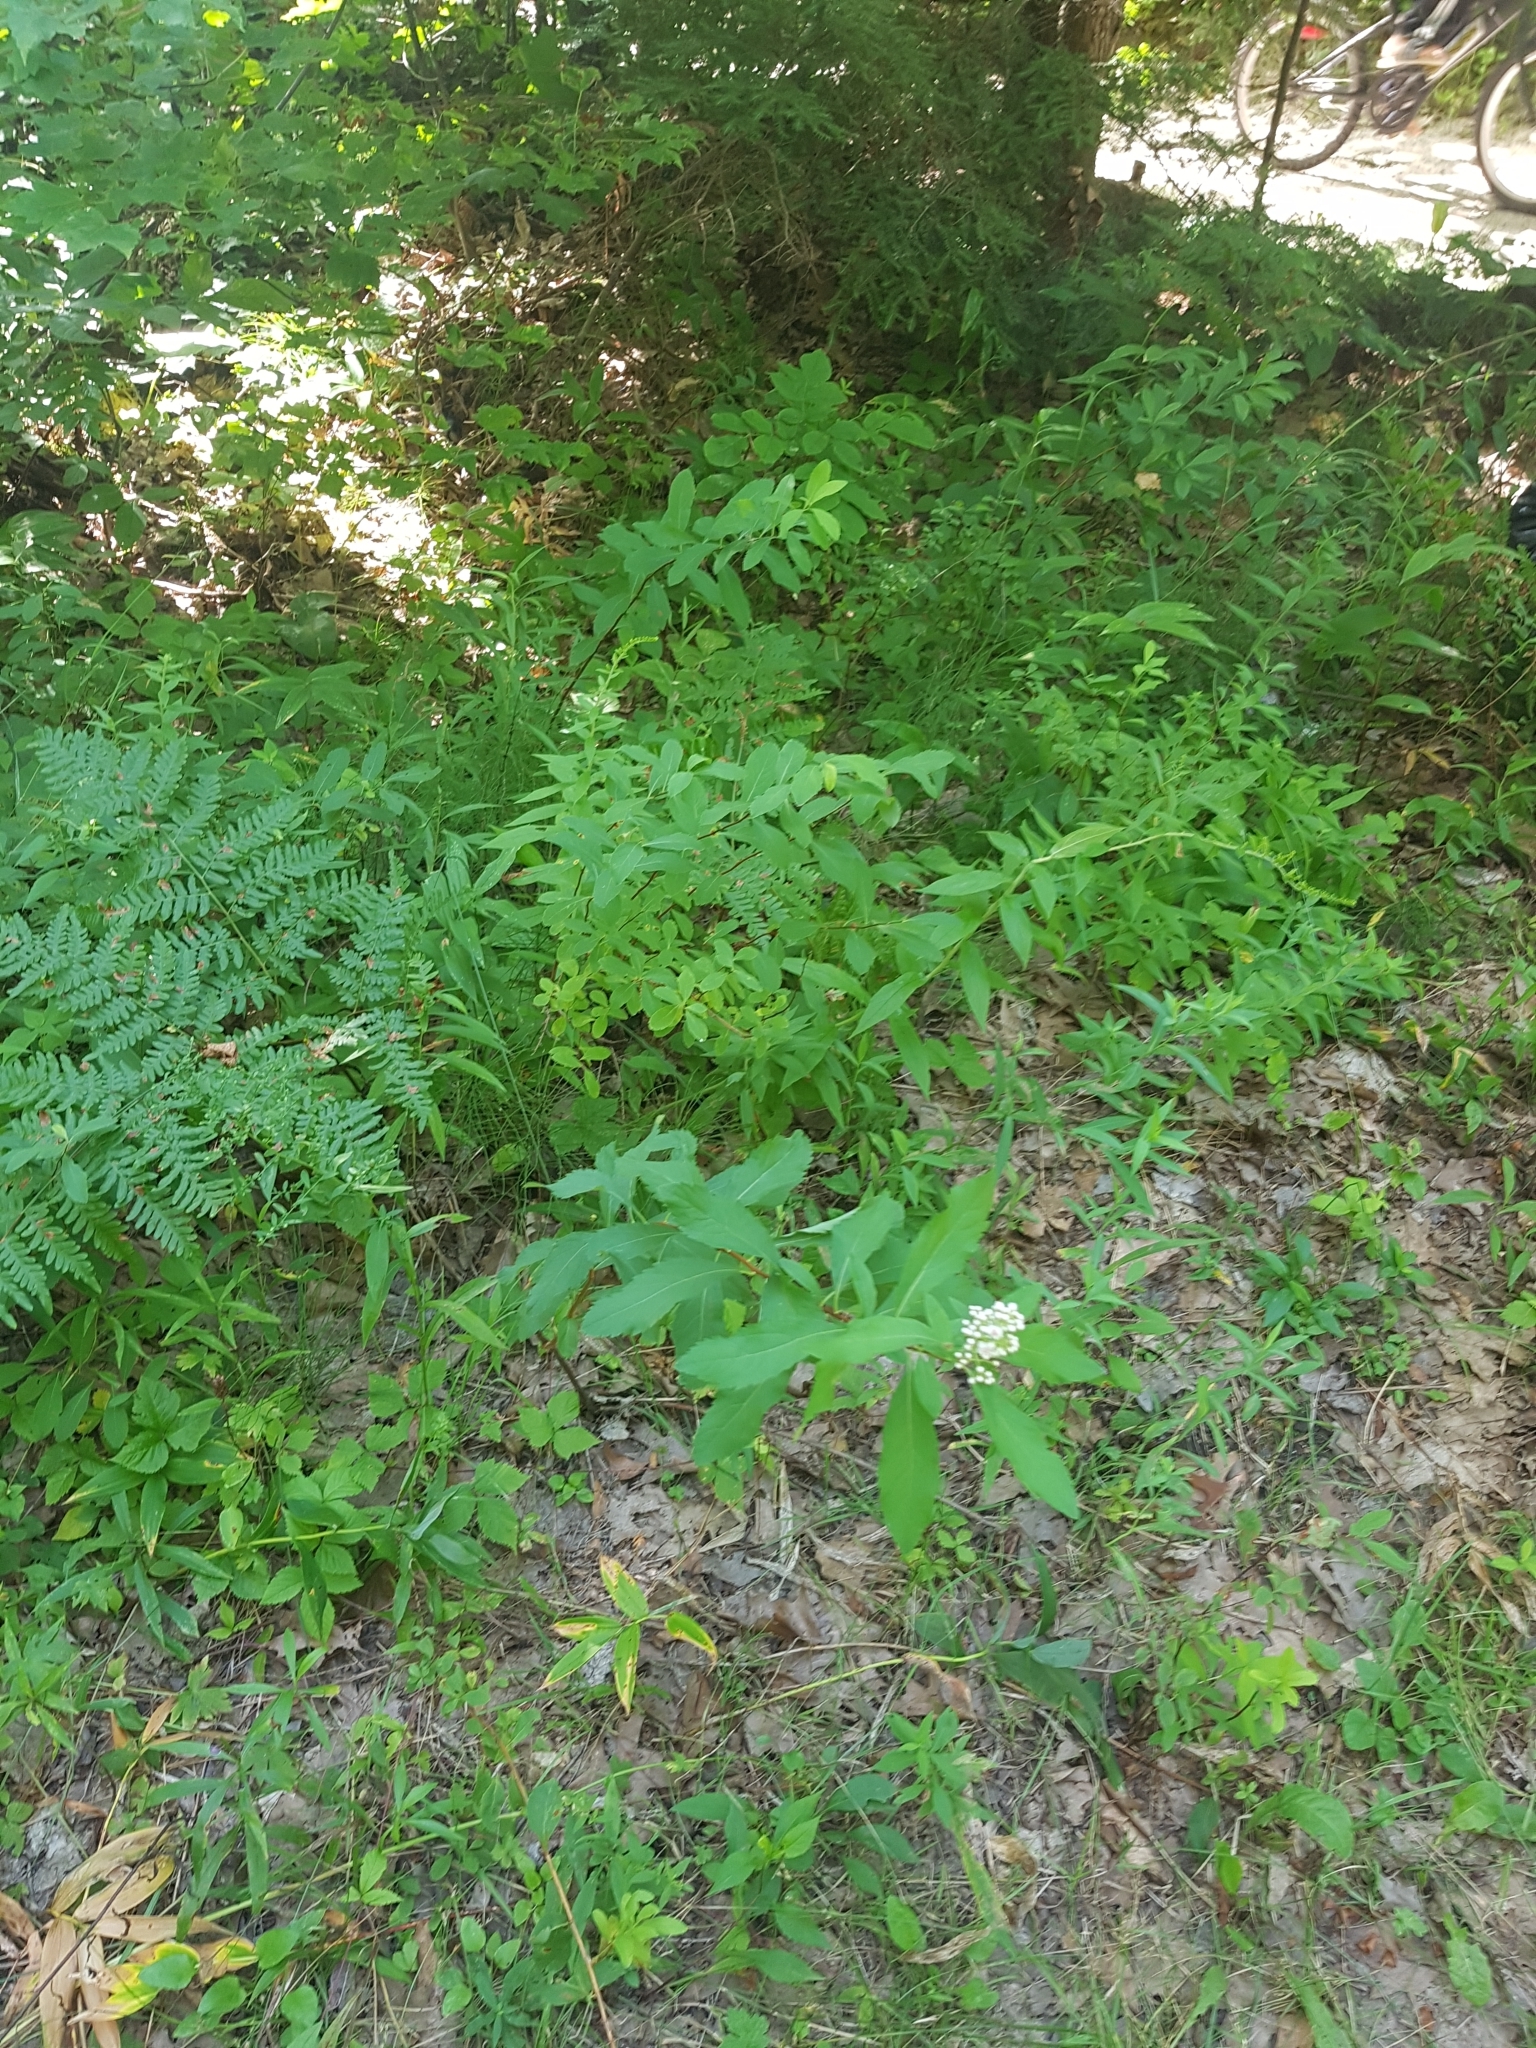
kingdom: Plantae
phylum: Tracheophyta
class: Magnoliopsida
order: Rosales
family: Rosaceae
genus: Spiraea
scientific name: Spiraea alba
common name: Pale bridewort
